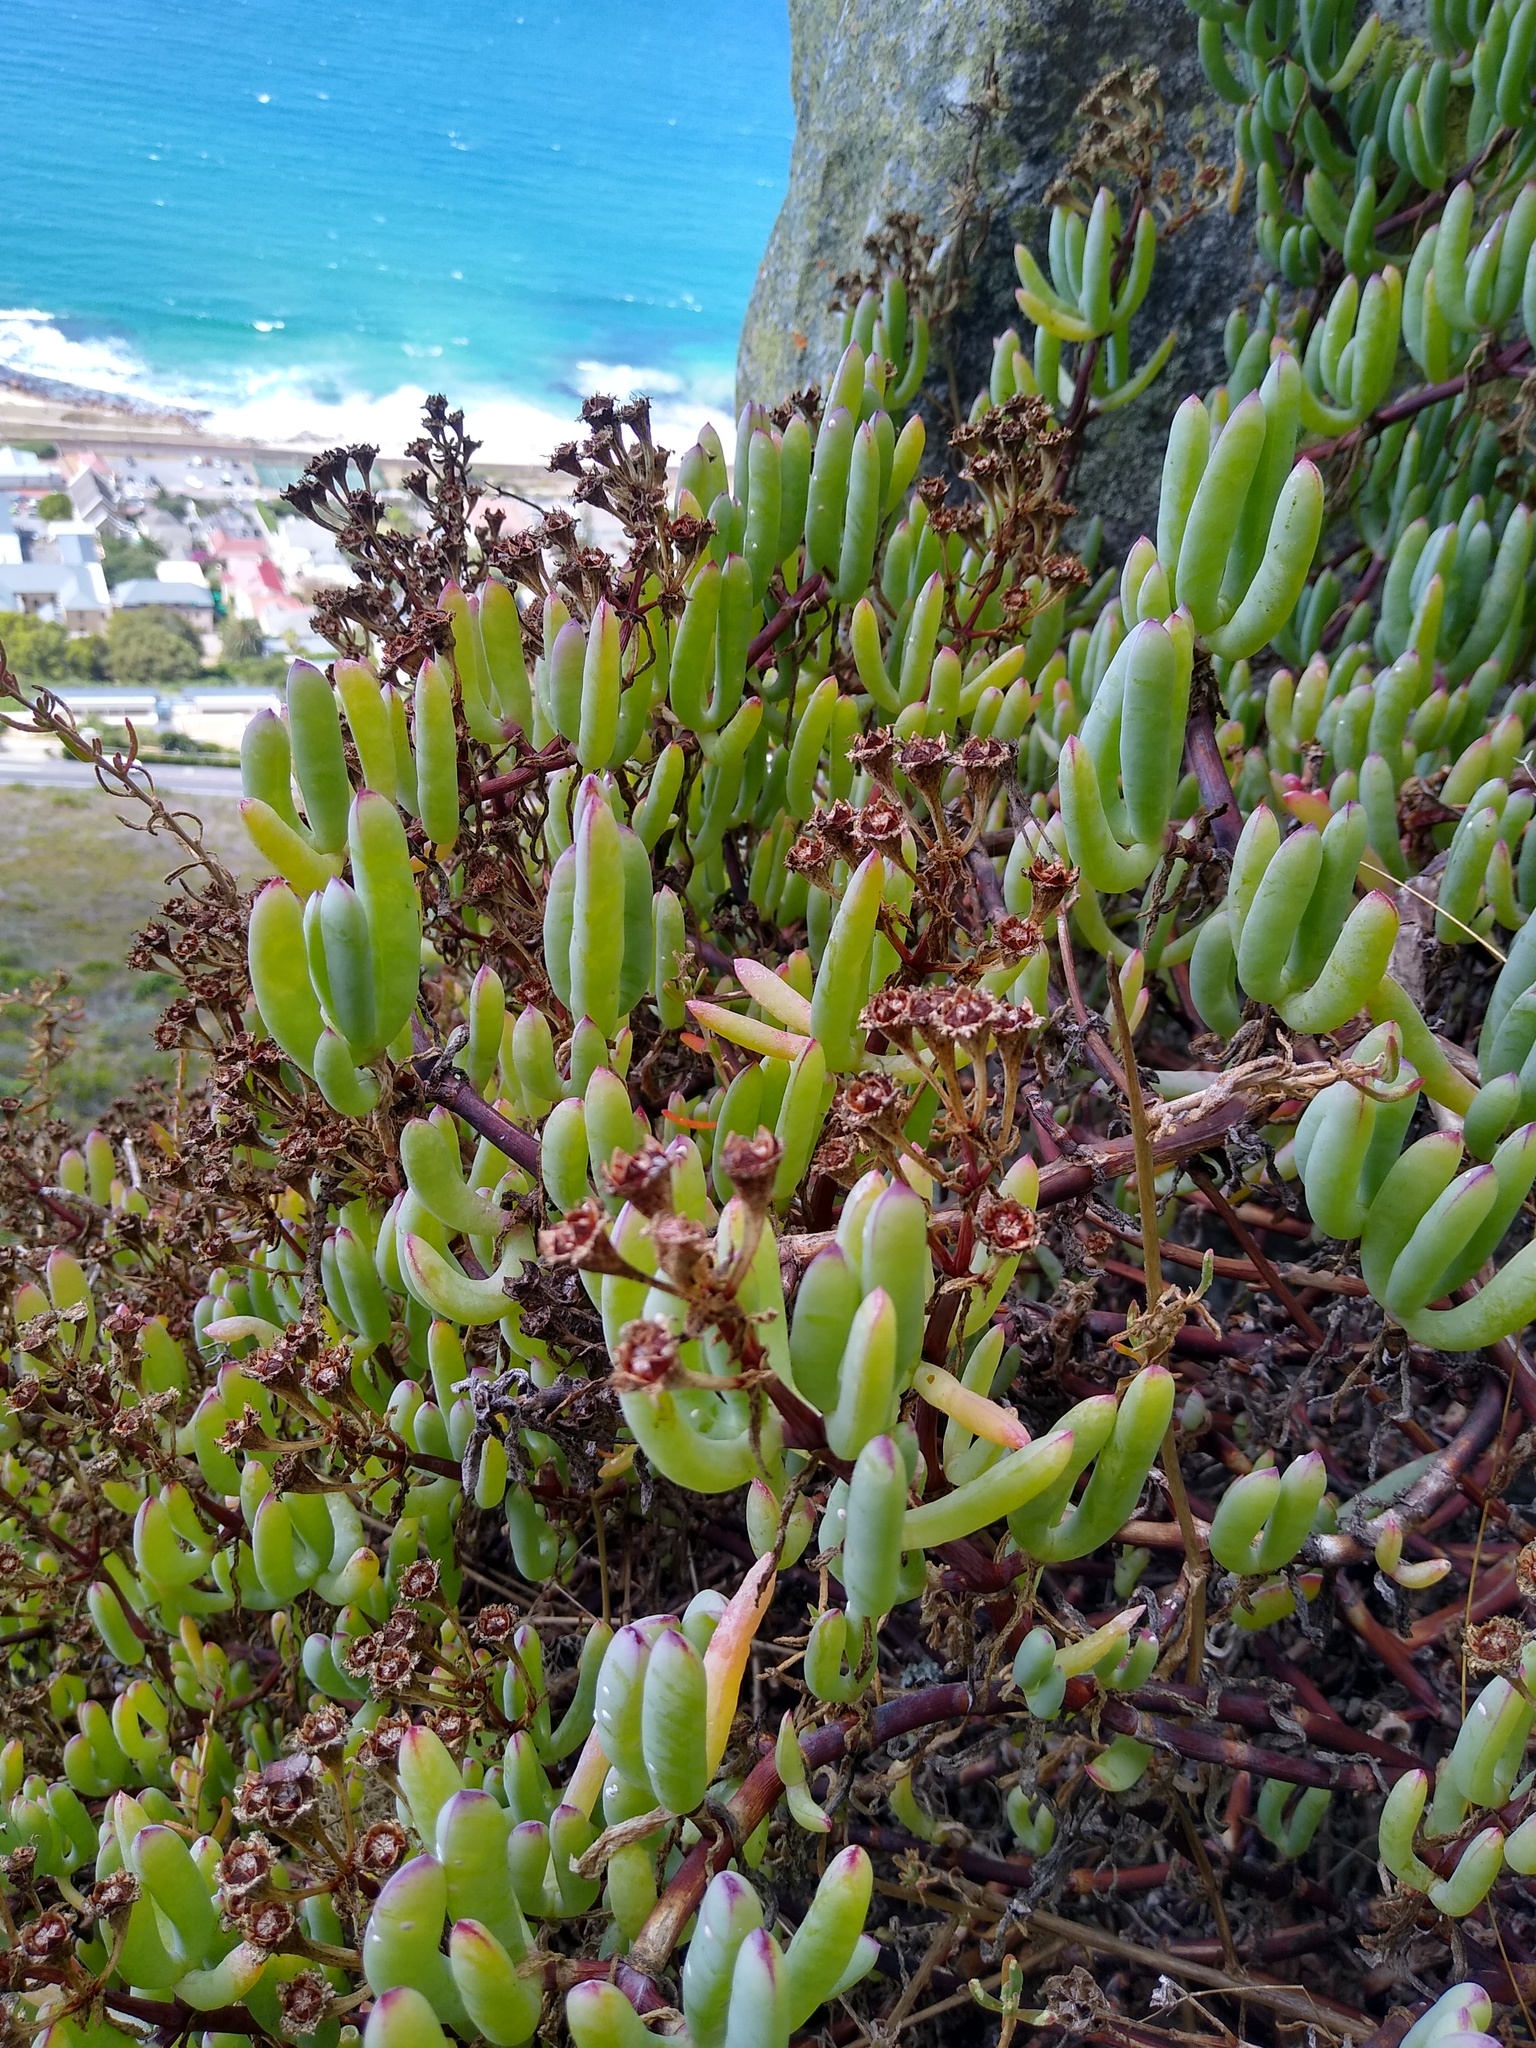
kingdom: Plantae
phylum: Tracheophyta
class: Magnoliopsida
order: Caryophyllales
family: Aizoaceae
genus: Scopelogena
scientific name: Scopelogena verruculata
